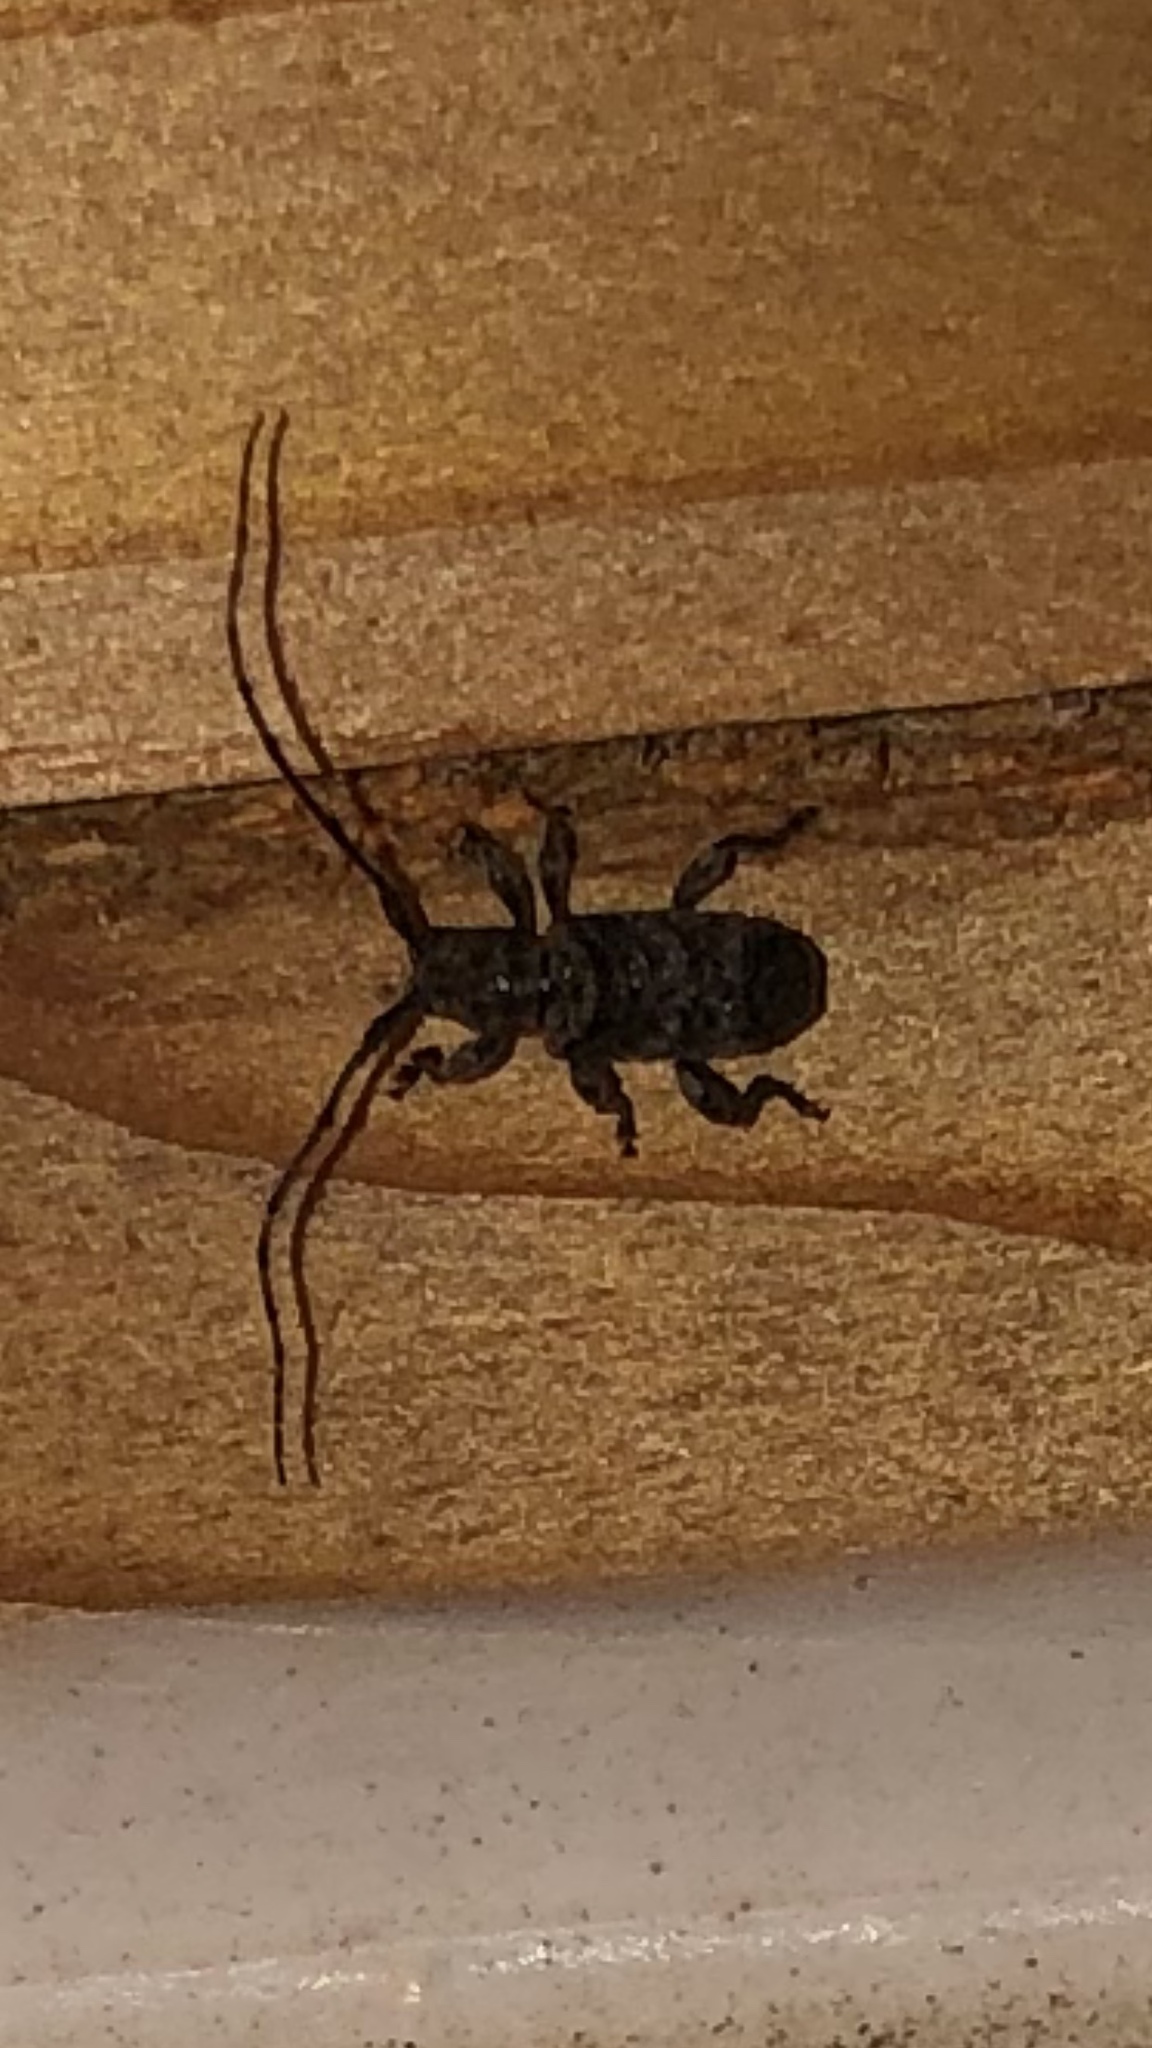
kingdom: Animalia
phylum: Arthropoda
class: Insecta
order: Coleoptera
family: Cerambycidae
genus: Ecyrus
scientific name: Ecyrus dasycerus
